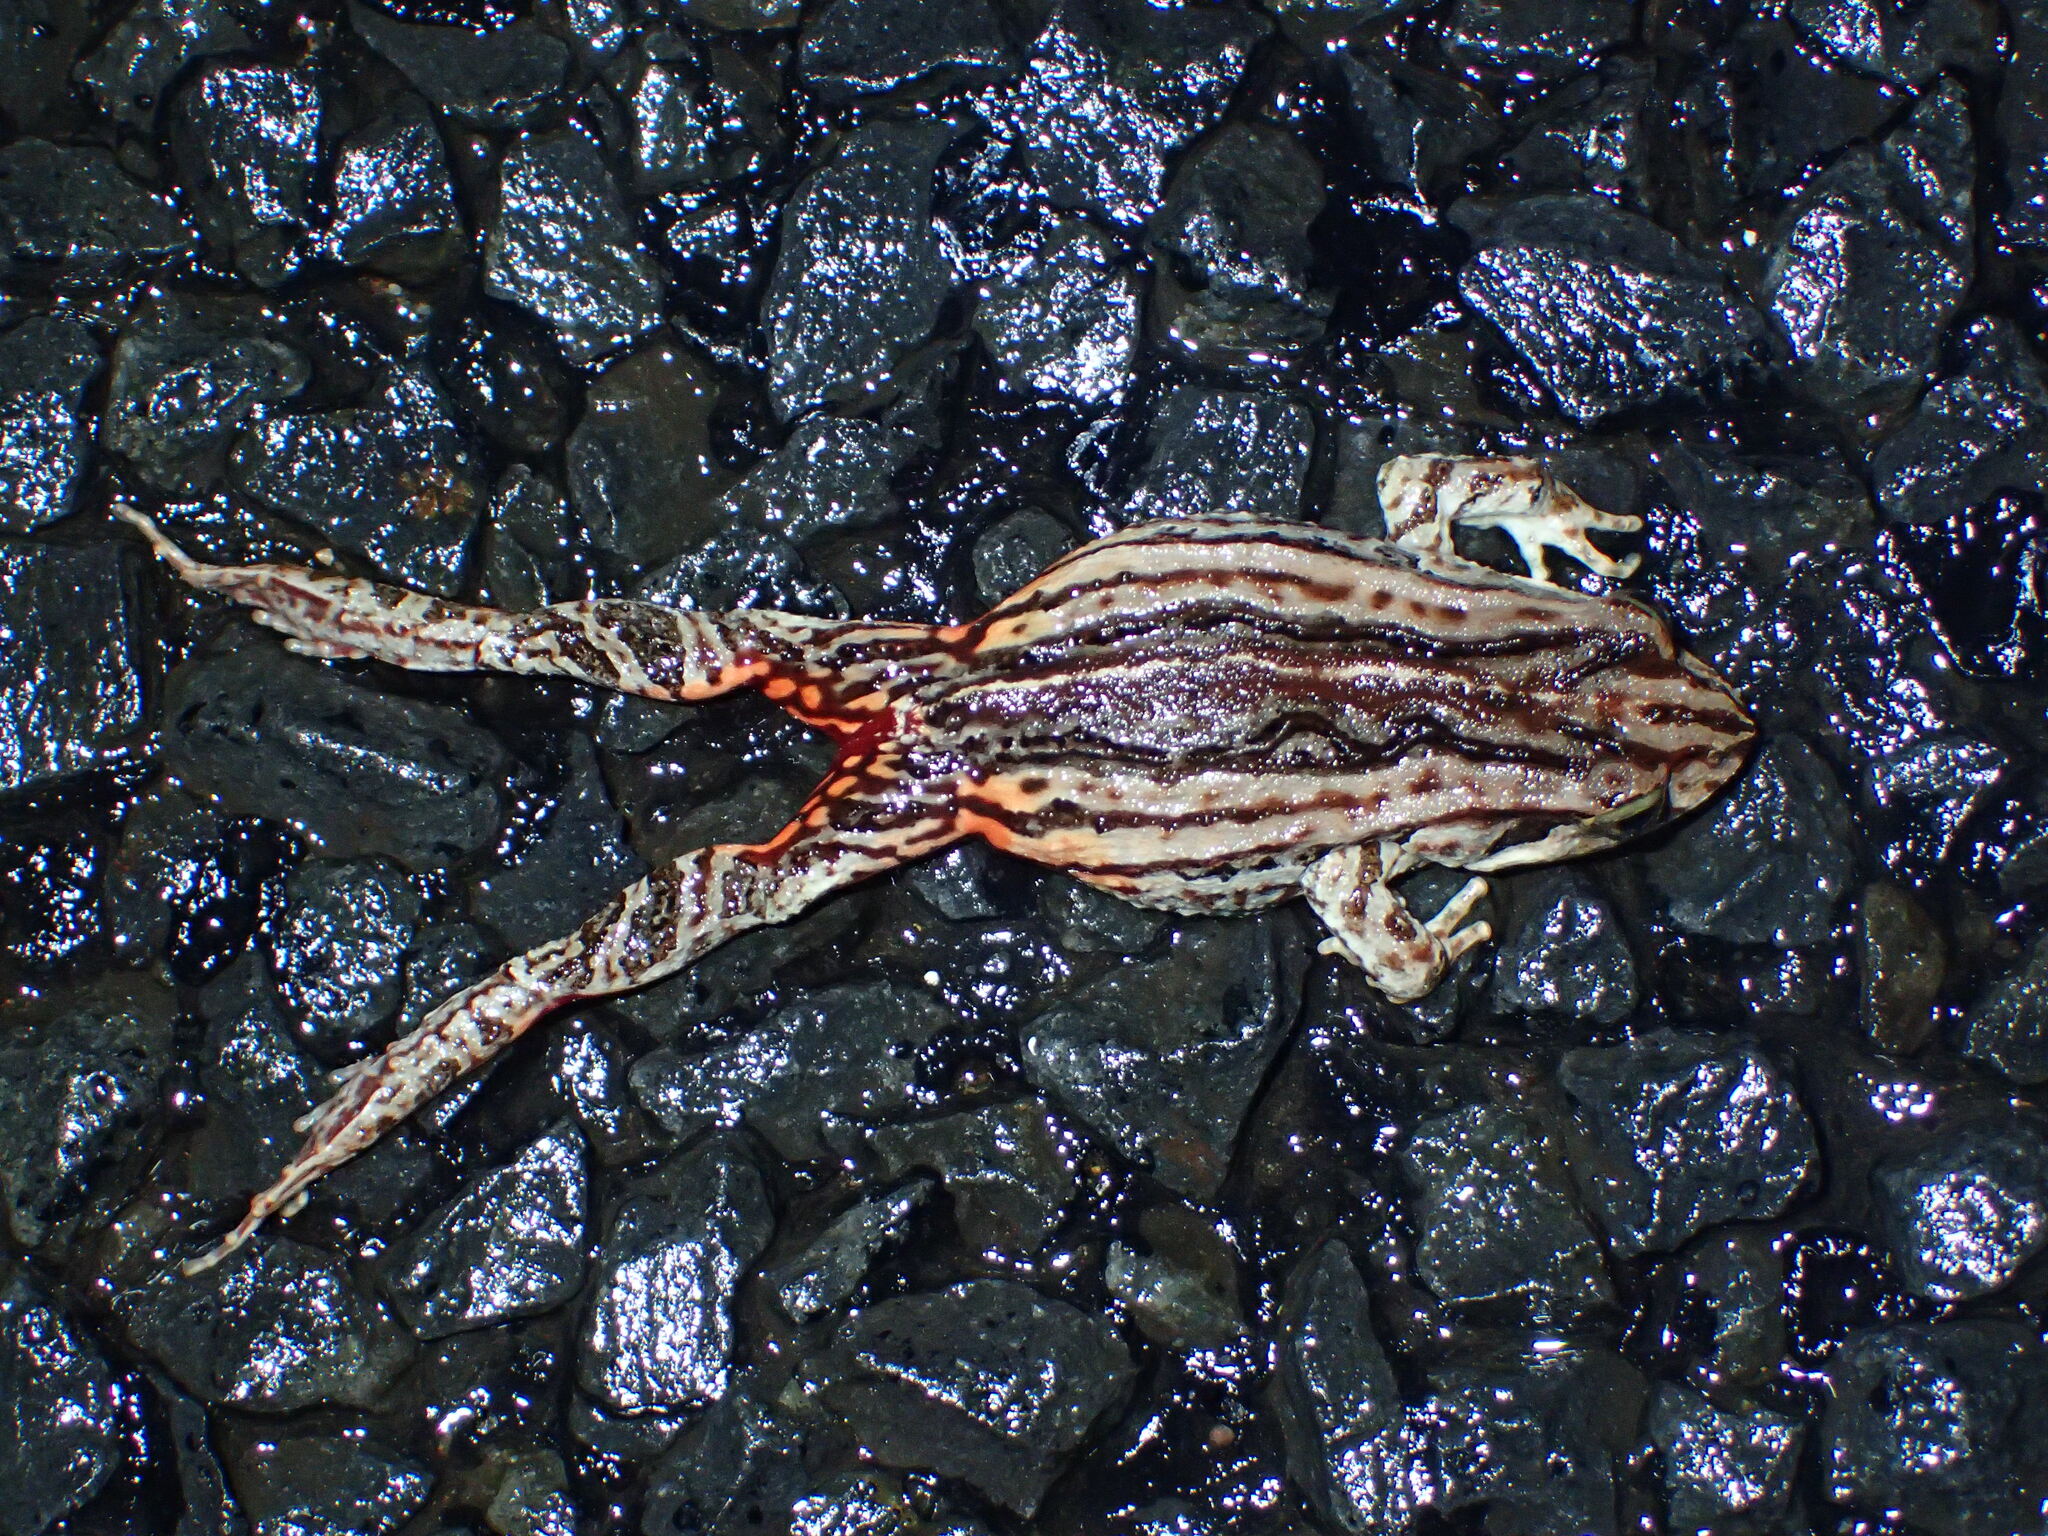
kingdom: Animalia
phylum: Chordata
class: Amphibia
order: Anura
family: Myobatrachidae
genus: Crinia
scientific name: Crinia georgiana
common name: Quacking frog
